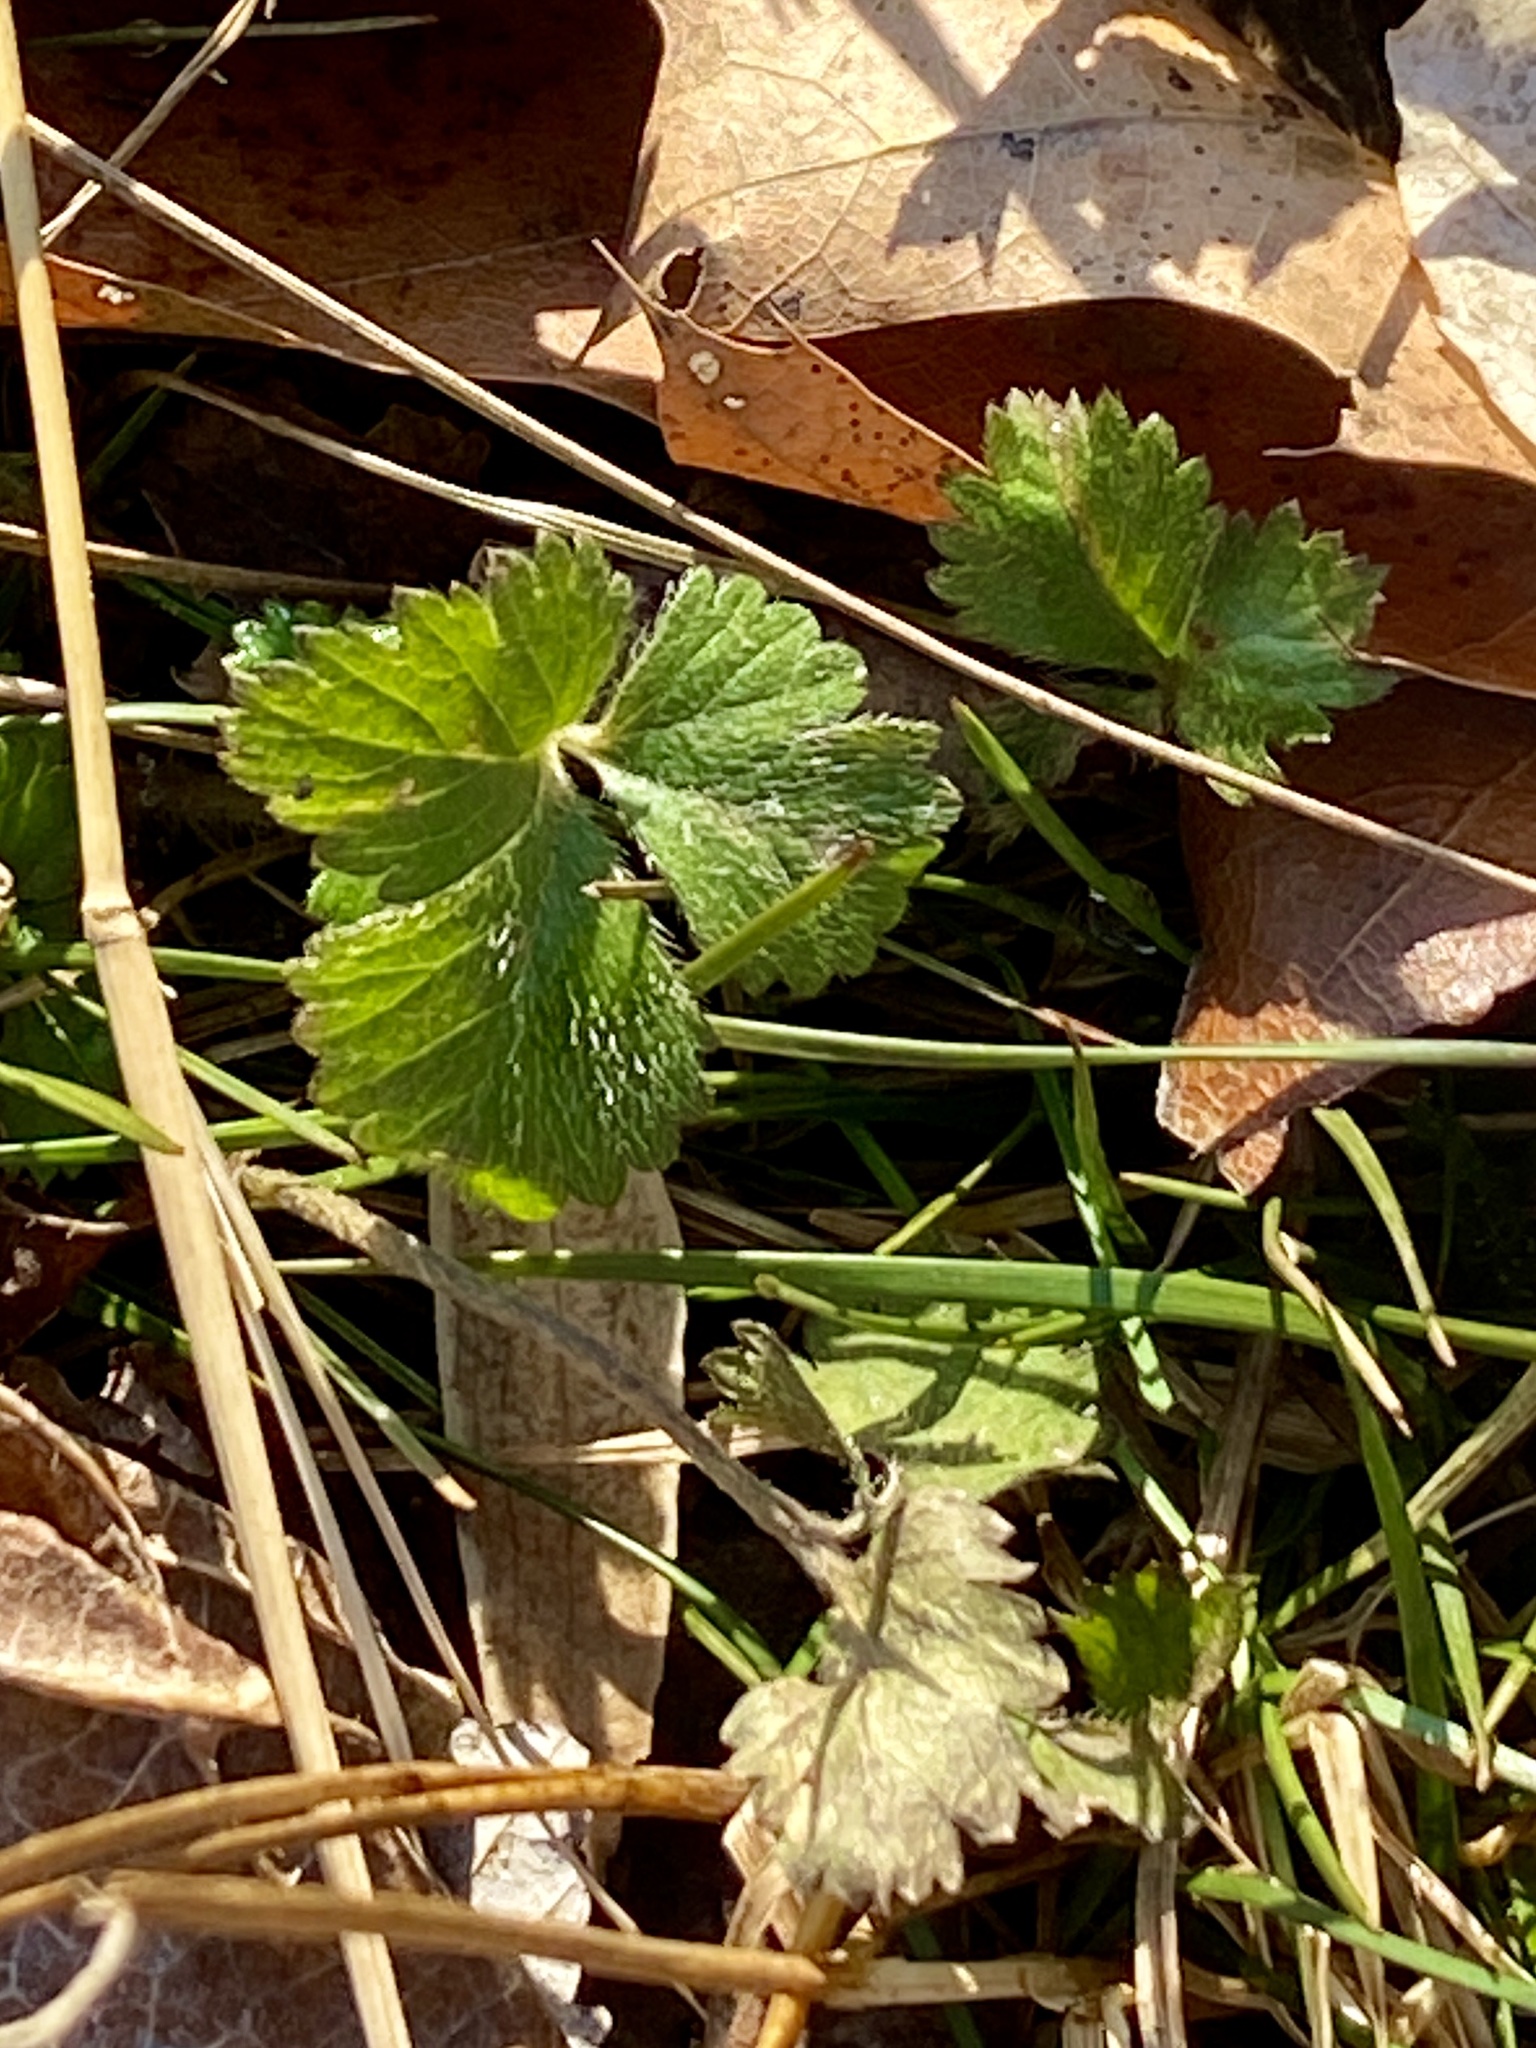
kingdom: Plantae
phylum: Tracheophyta
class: Magnoliopsida
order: Rosales
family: Rosaceae
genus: Potentilla
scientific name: Potentilla indica
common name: Yellow-flowered strawberry
